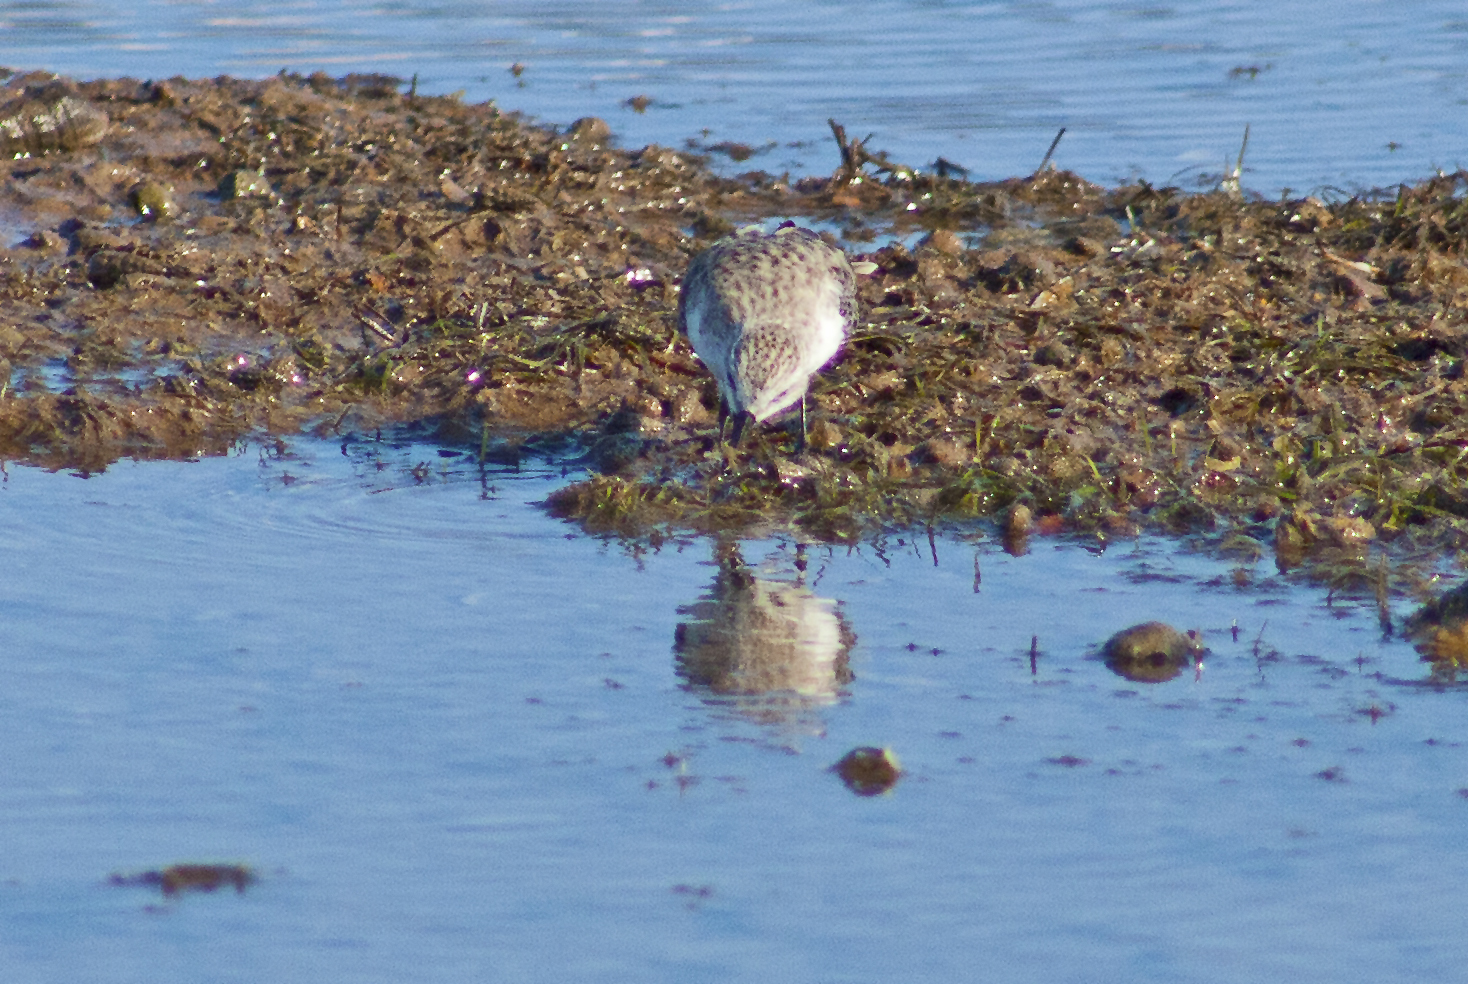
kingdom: Animalia
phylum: Chordata
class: Aves
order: Charadriiformes
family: Scolopacidae
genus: Calidris
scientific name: Calidris ruficollis
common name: Red-necked stint
